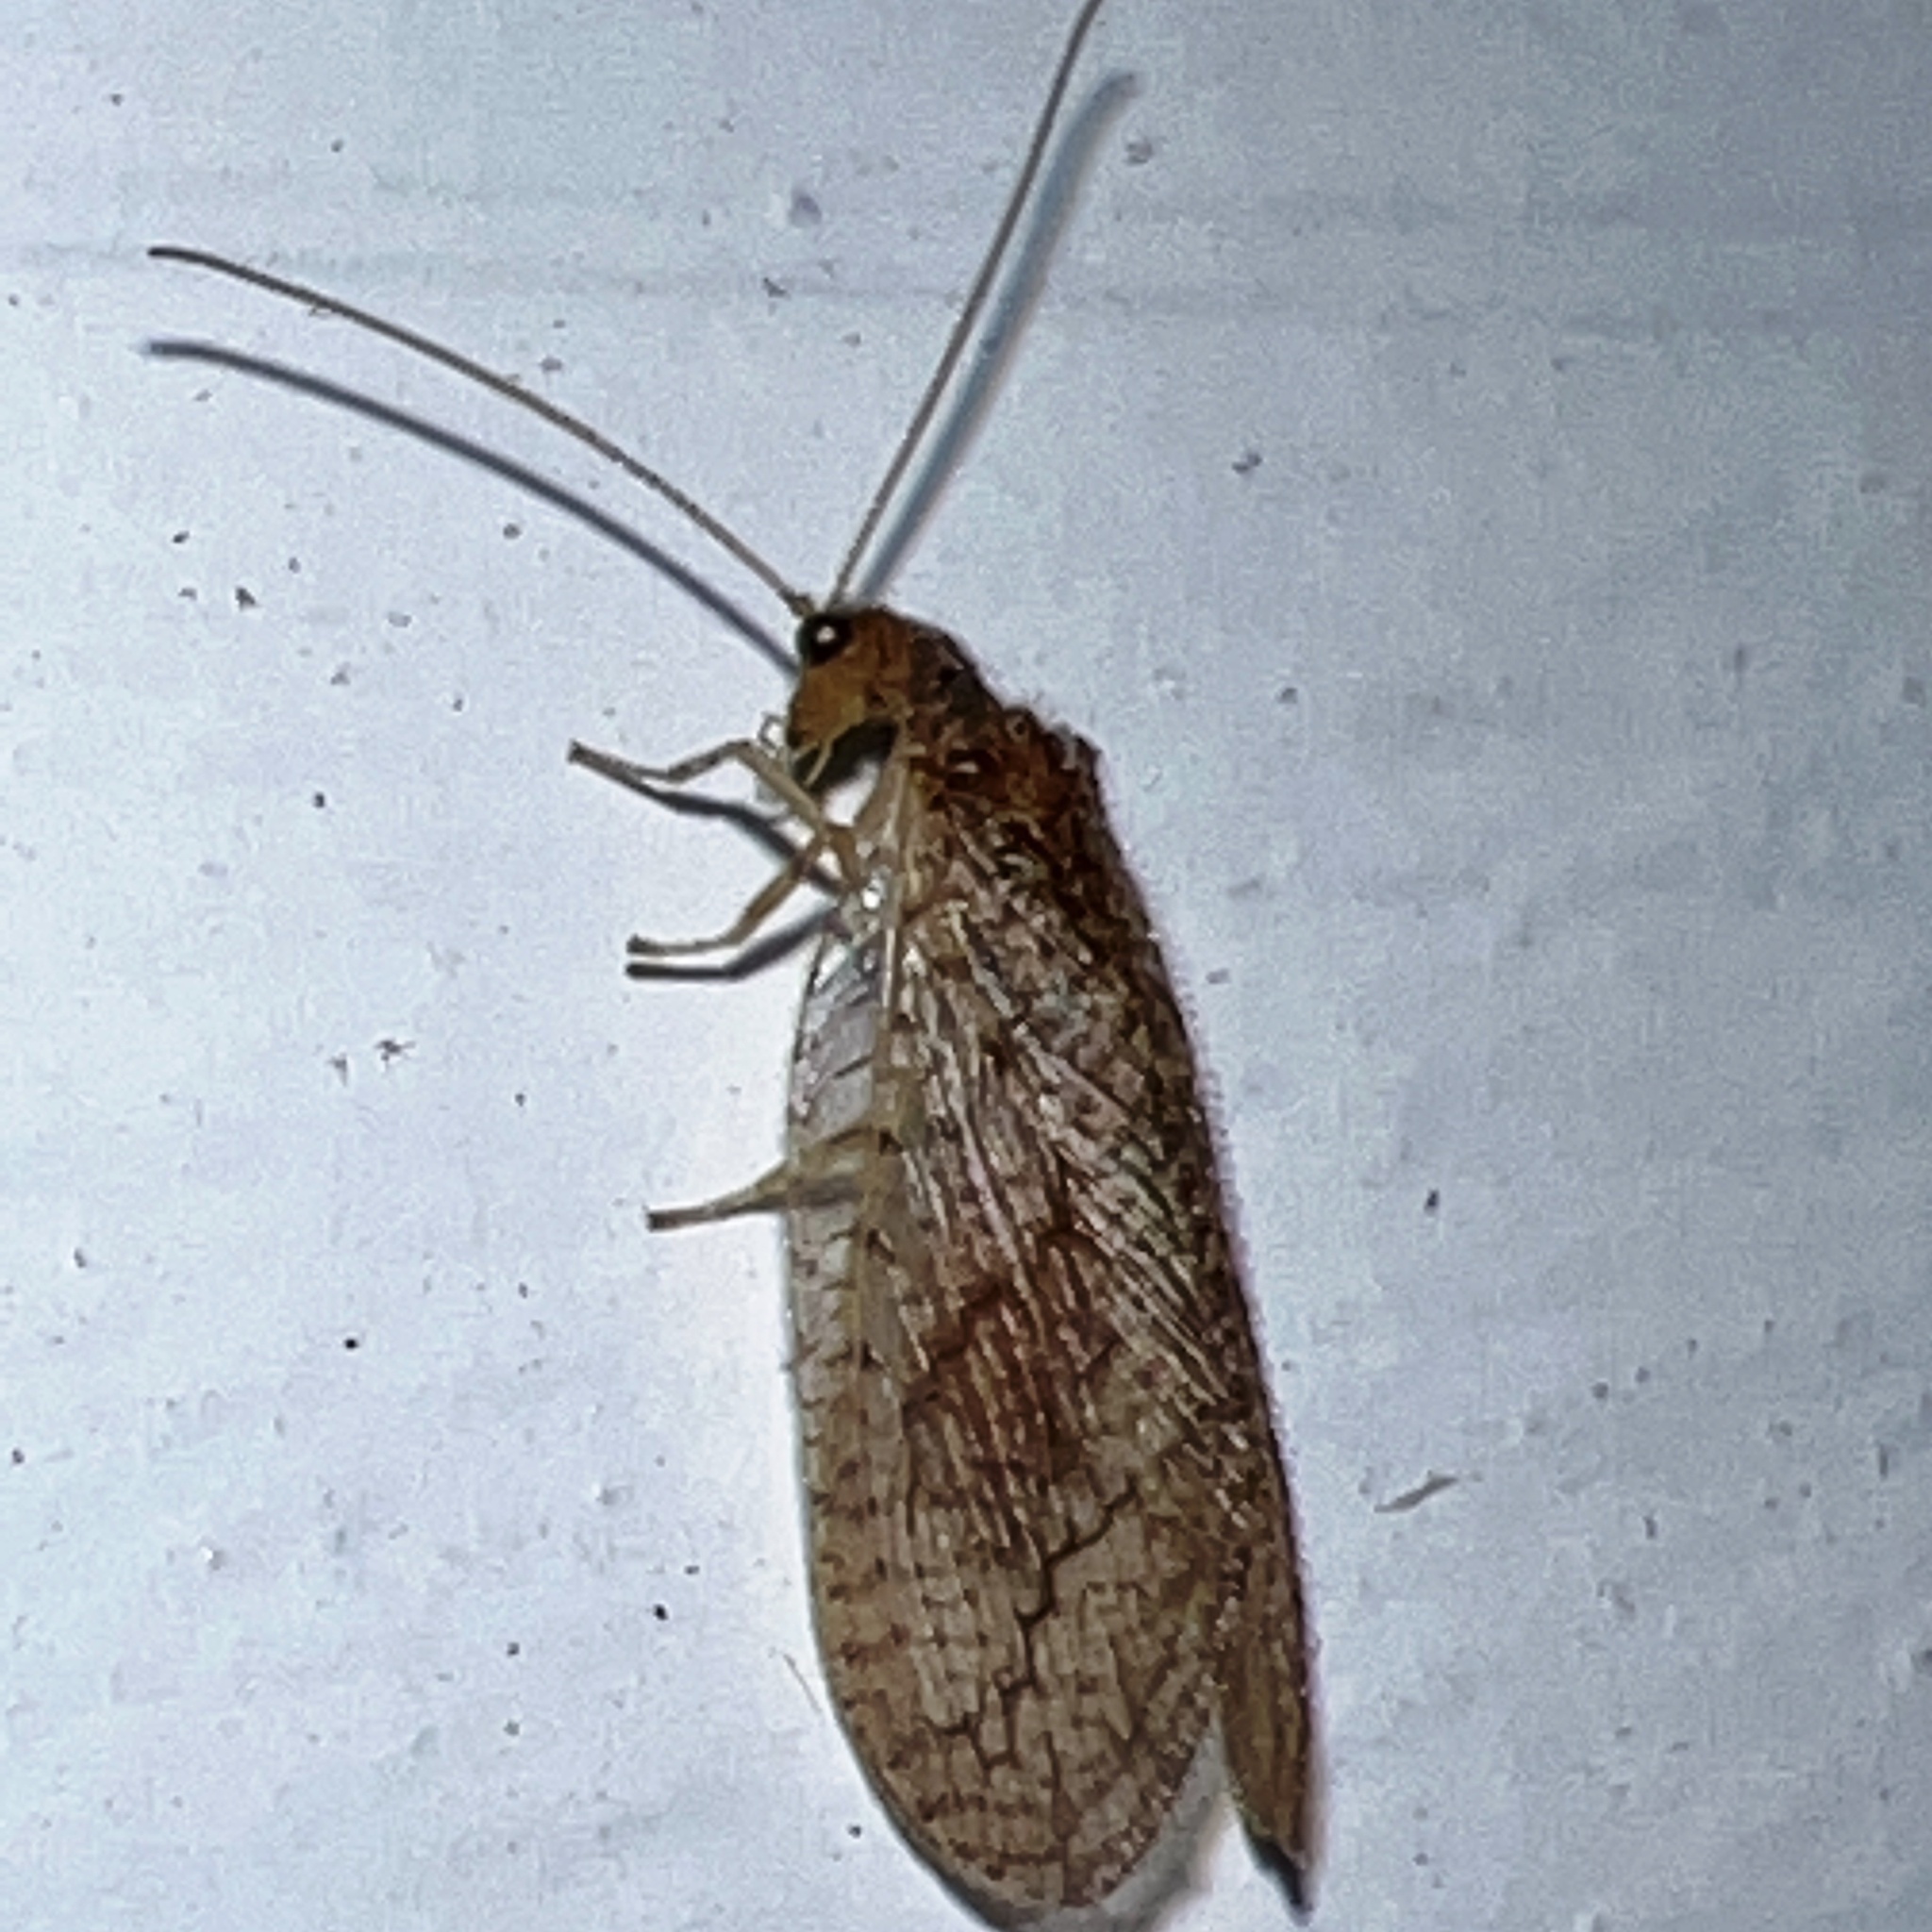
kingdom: Animalia
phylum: Arthropoda
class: Insecta
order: Neuroptera
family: Hemerobiidae
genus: Micromus
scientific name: Micromus posticus
